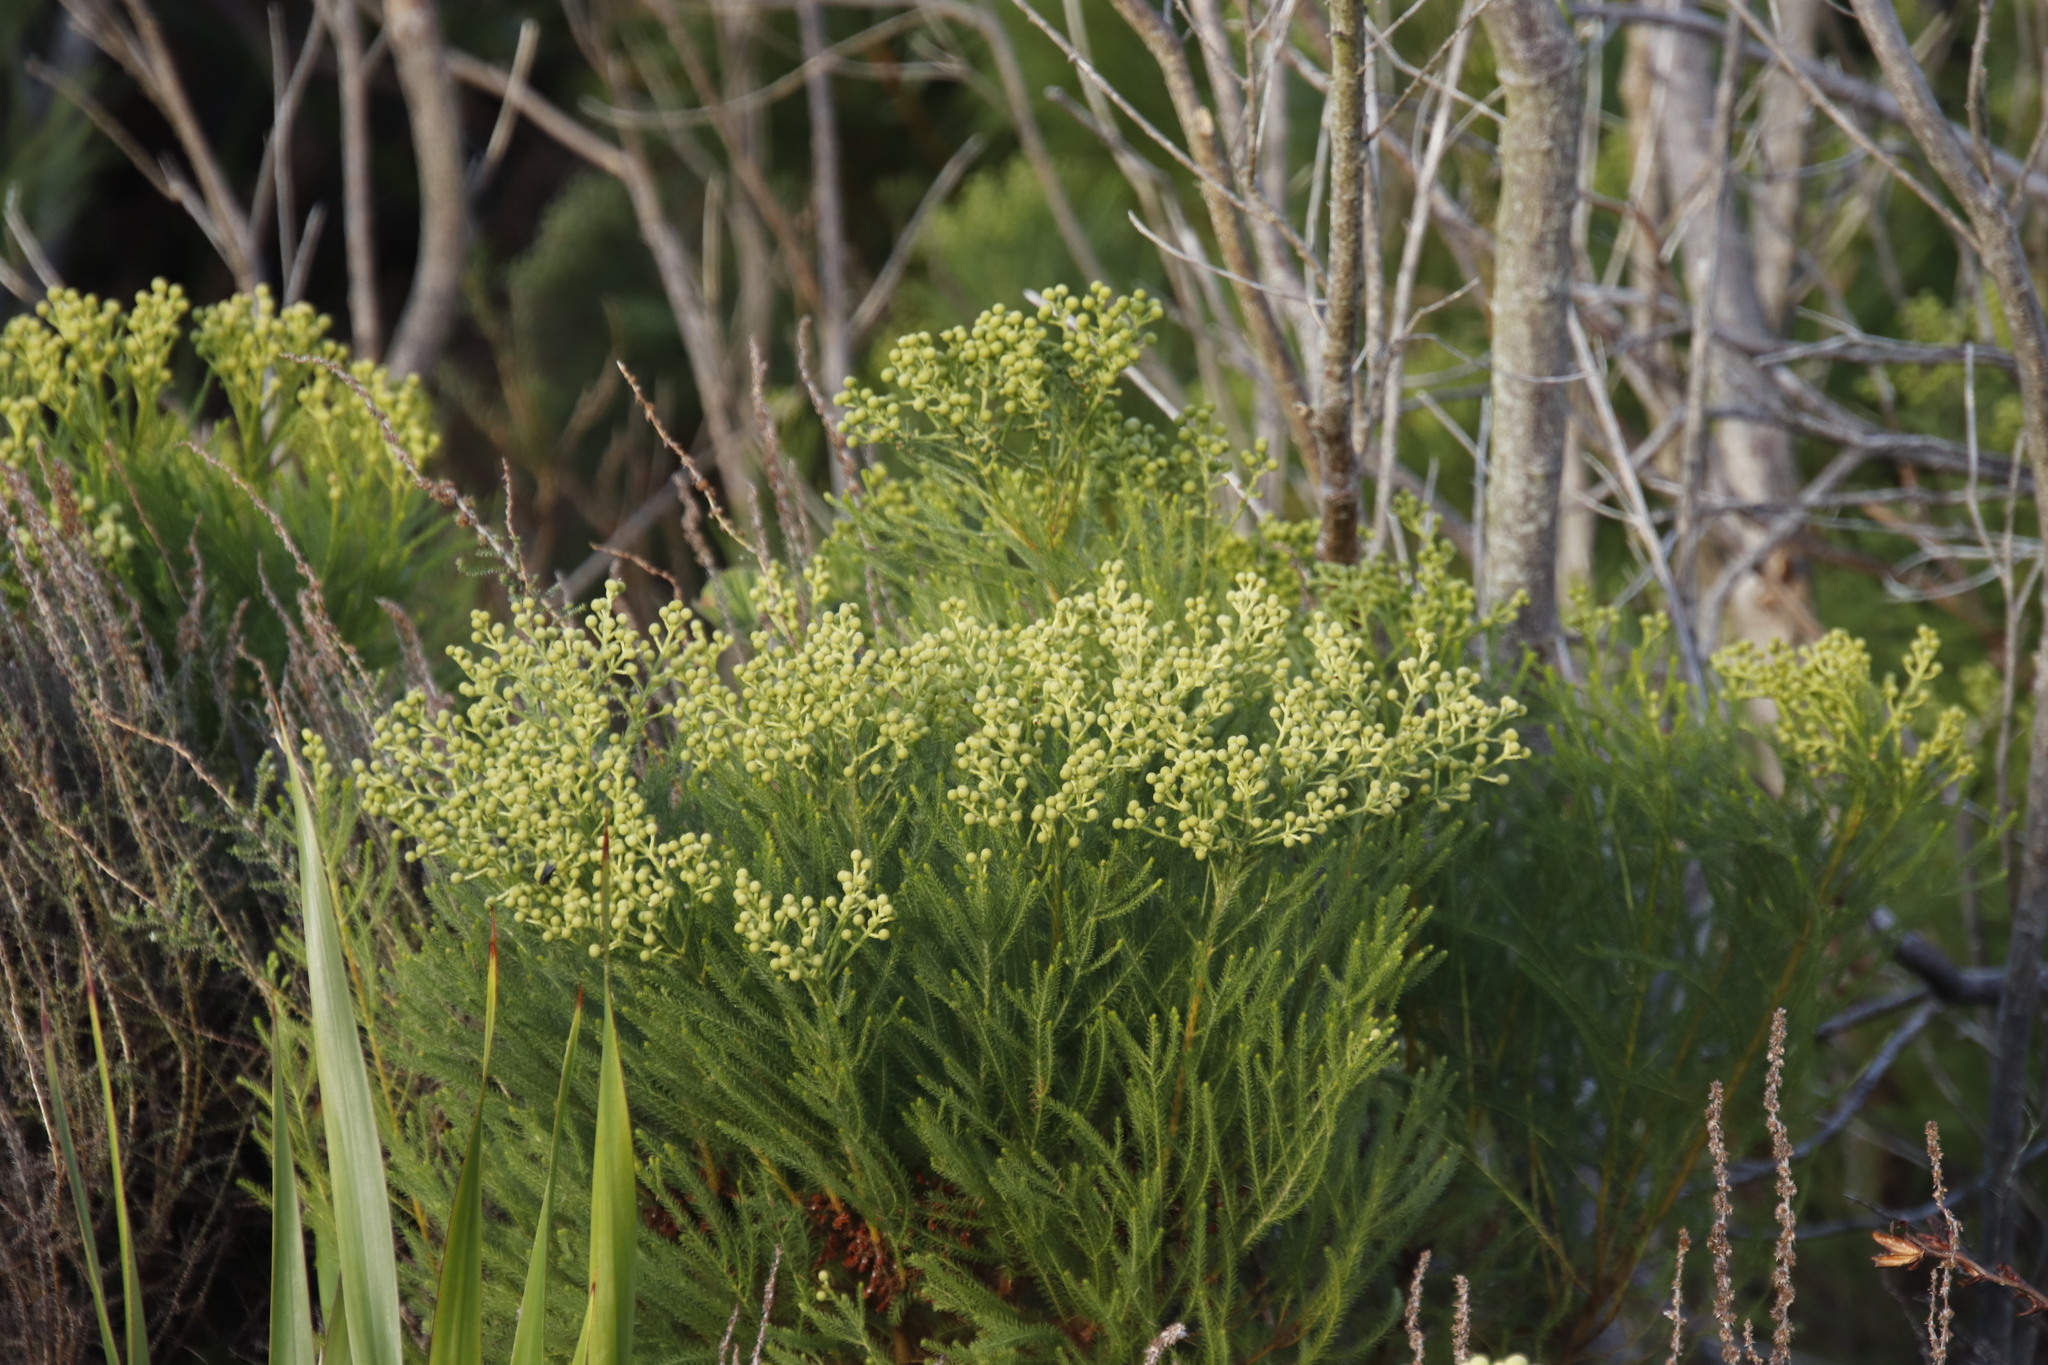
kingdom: Plantae
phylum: Tracheophyta
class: Magnoliopsida
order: Bruniales
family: Bruniaceae
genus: Berzelia
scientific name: Berzelia lanuginosa
